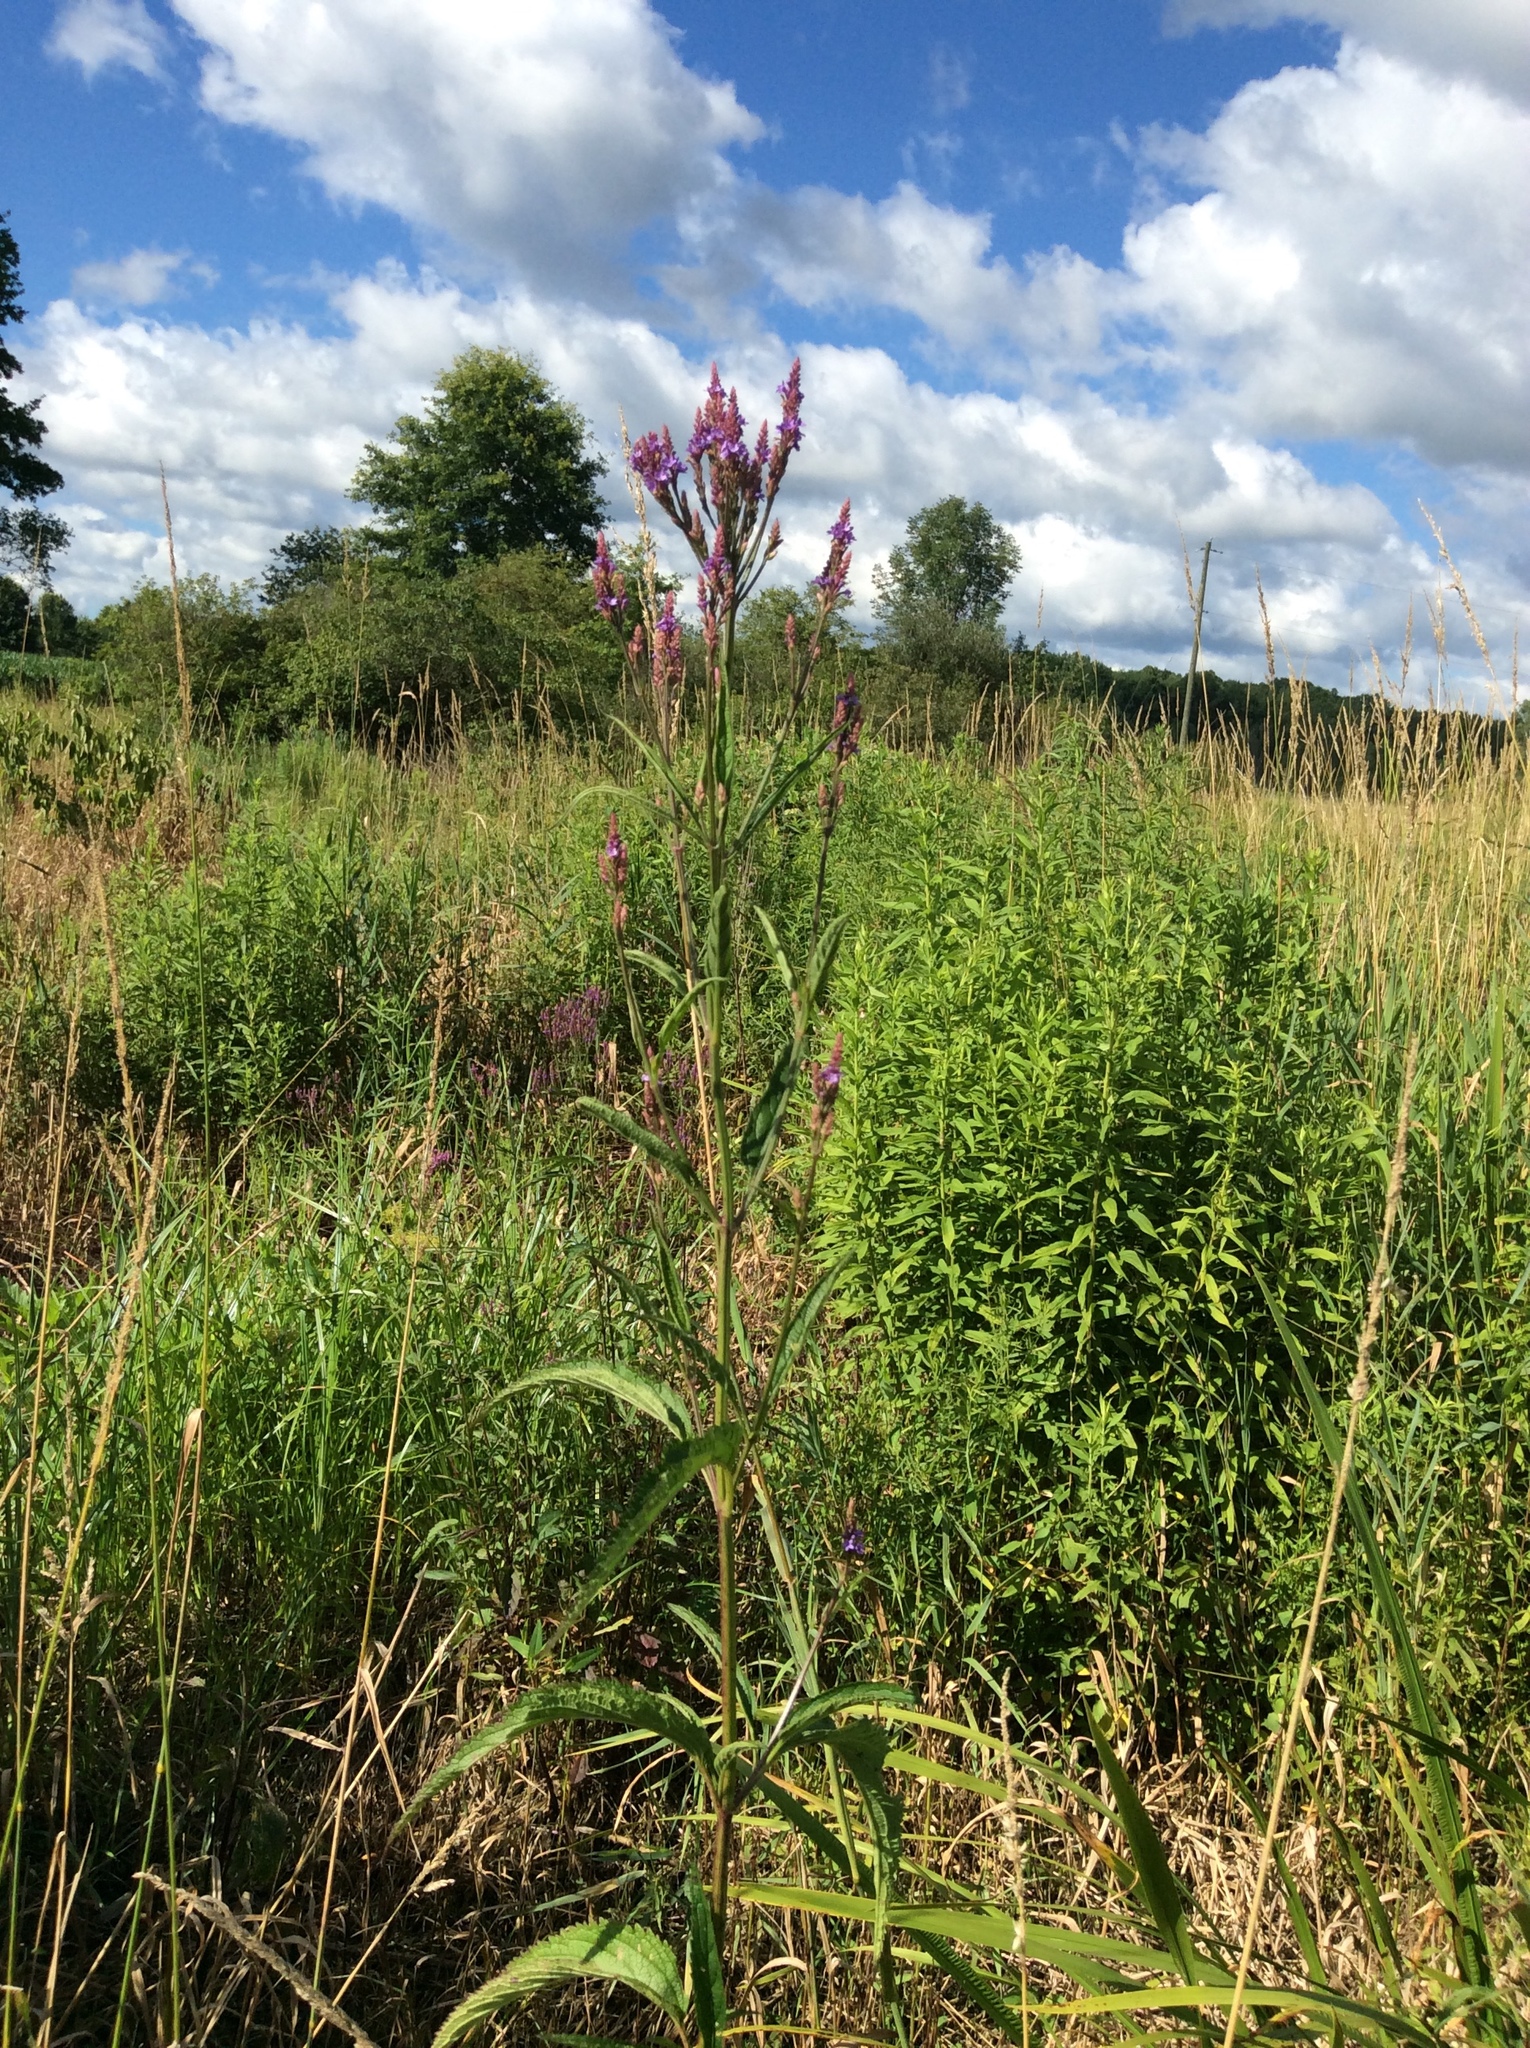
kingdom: Plantae
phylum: Tracheophyta
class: Magnoliopsida
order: Lamiales
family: Verbenaceae
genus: Verbena
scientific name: Verbena hastata
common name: American blue vervain
